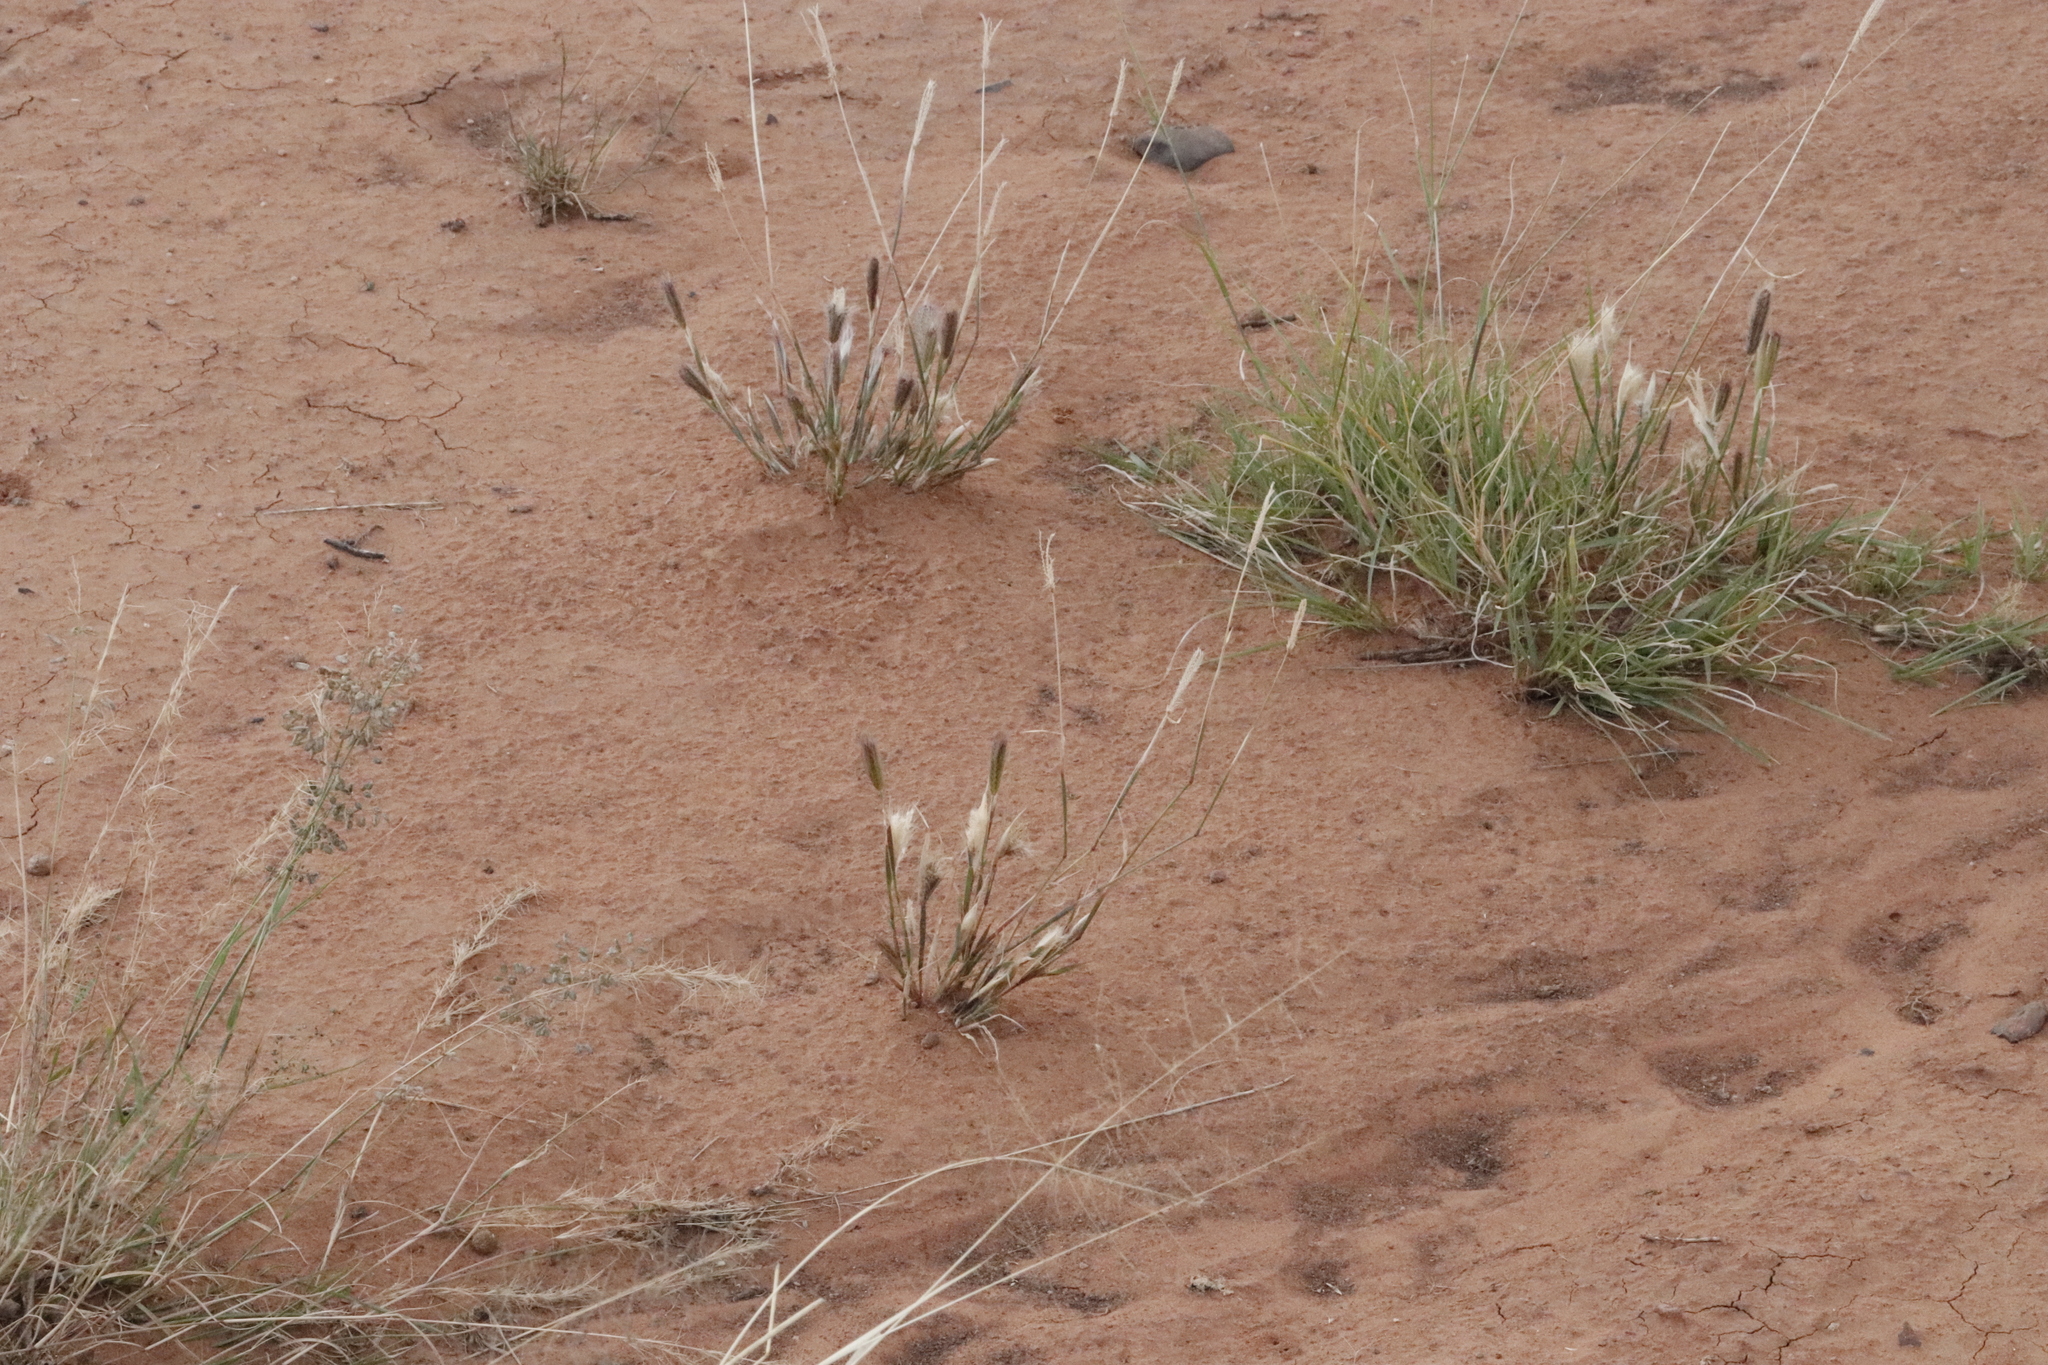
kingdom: Plantae
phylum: Tracheophyta
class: Liliopsida
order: Poales
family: Poaceae
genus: Chloris
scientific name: Chloris virgata
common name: Feathery rhodes-grass
